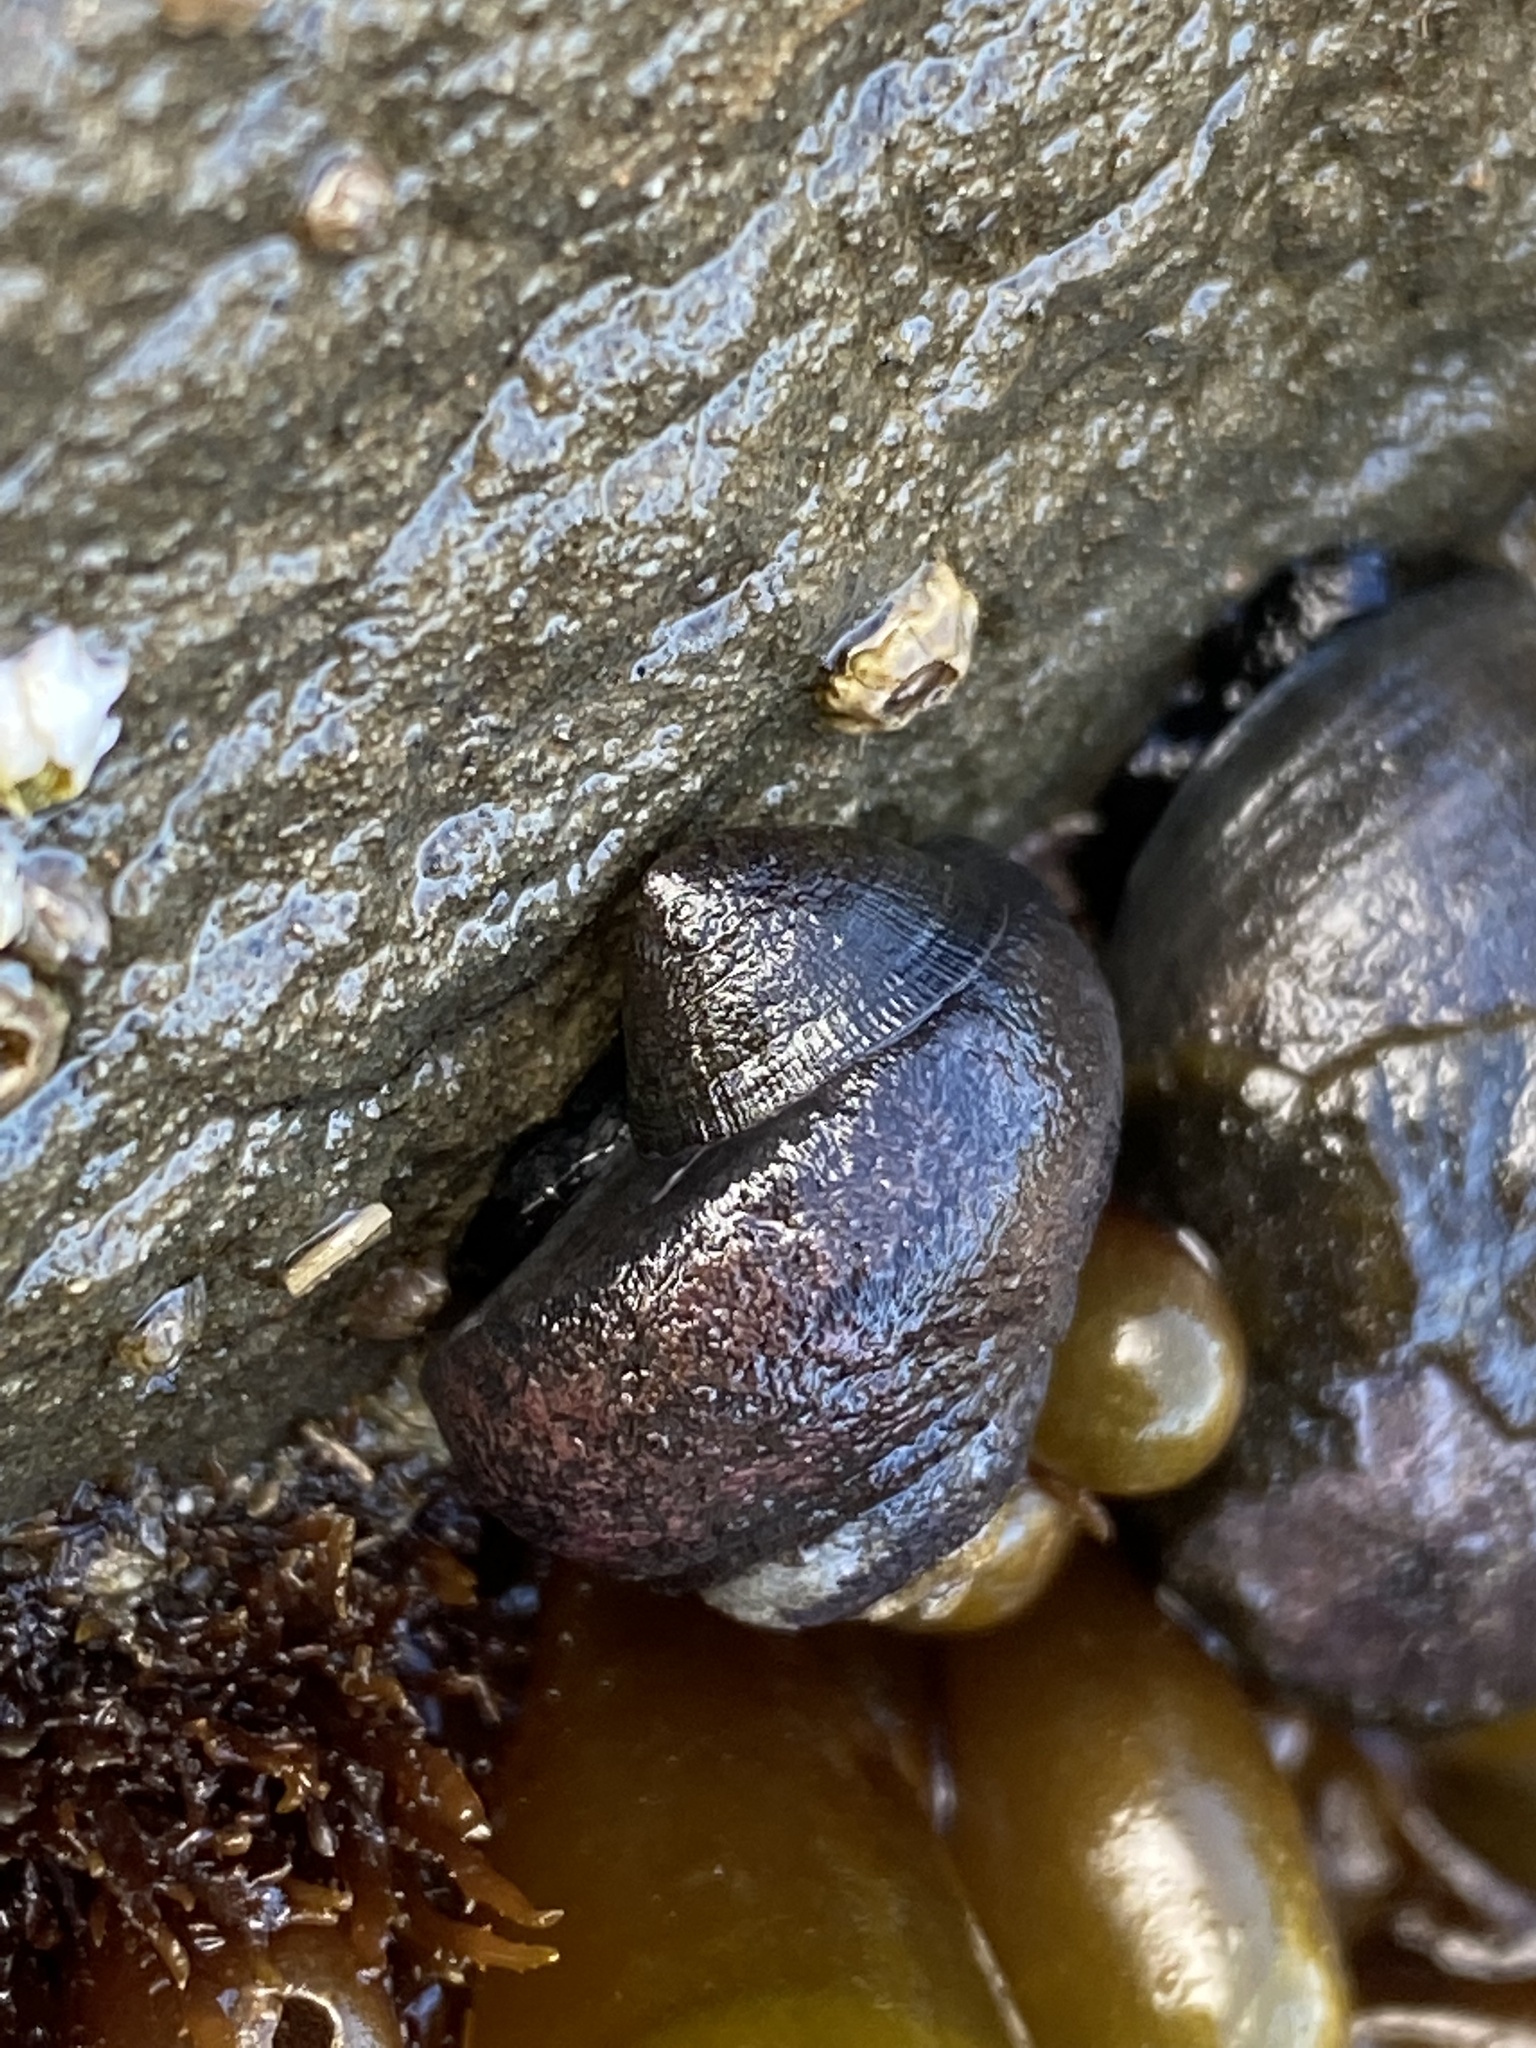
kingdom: Animalia
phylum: Mollusca
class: Gastropoda
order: Trochida
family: Tegulidae
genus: Tegula
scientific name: Tegula funebralis
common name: Black tegula
